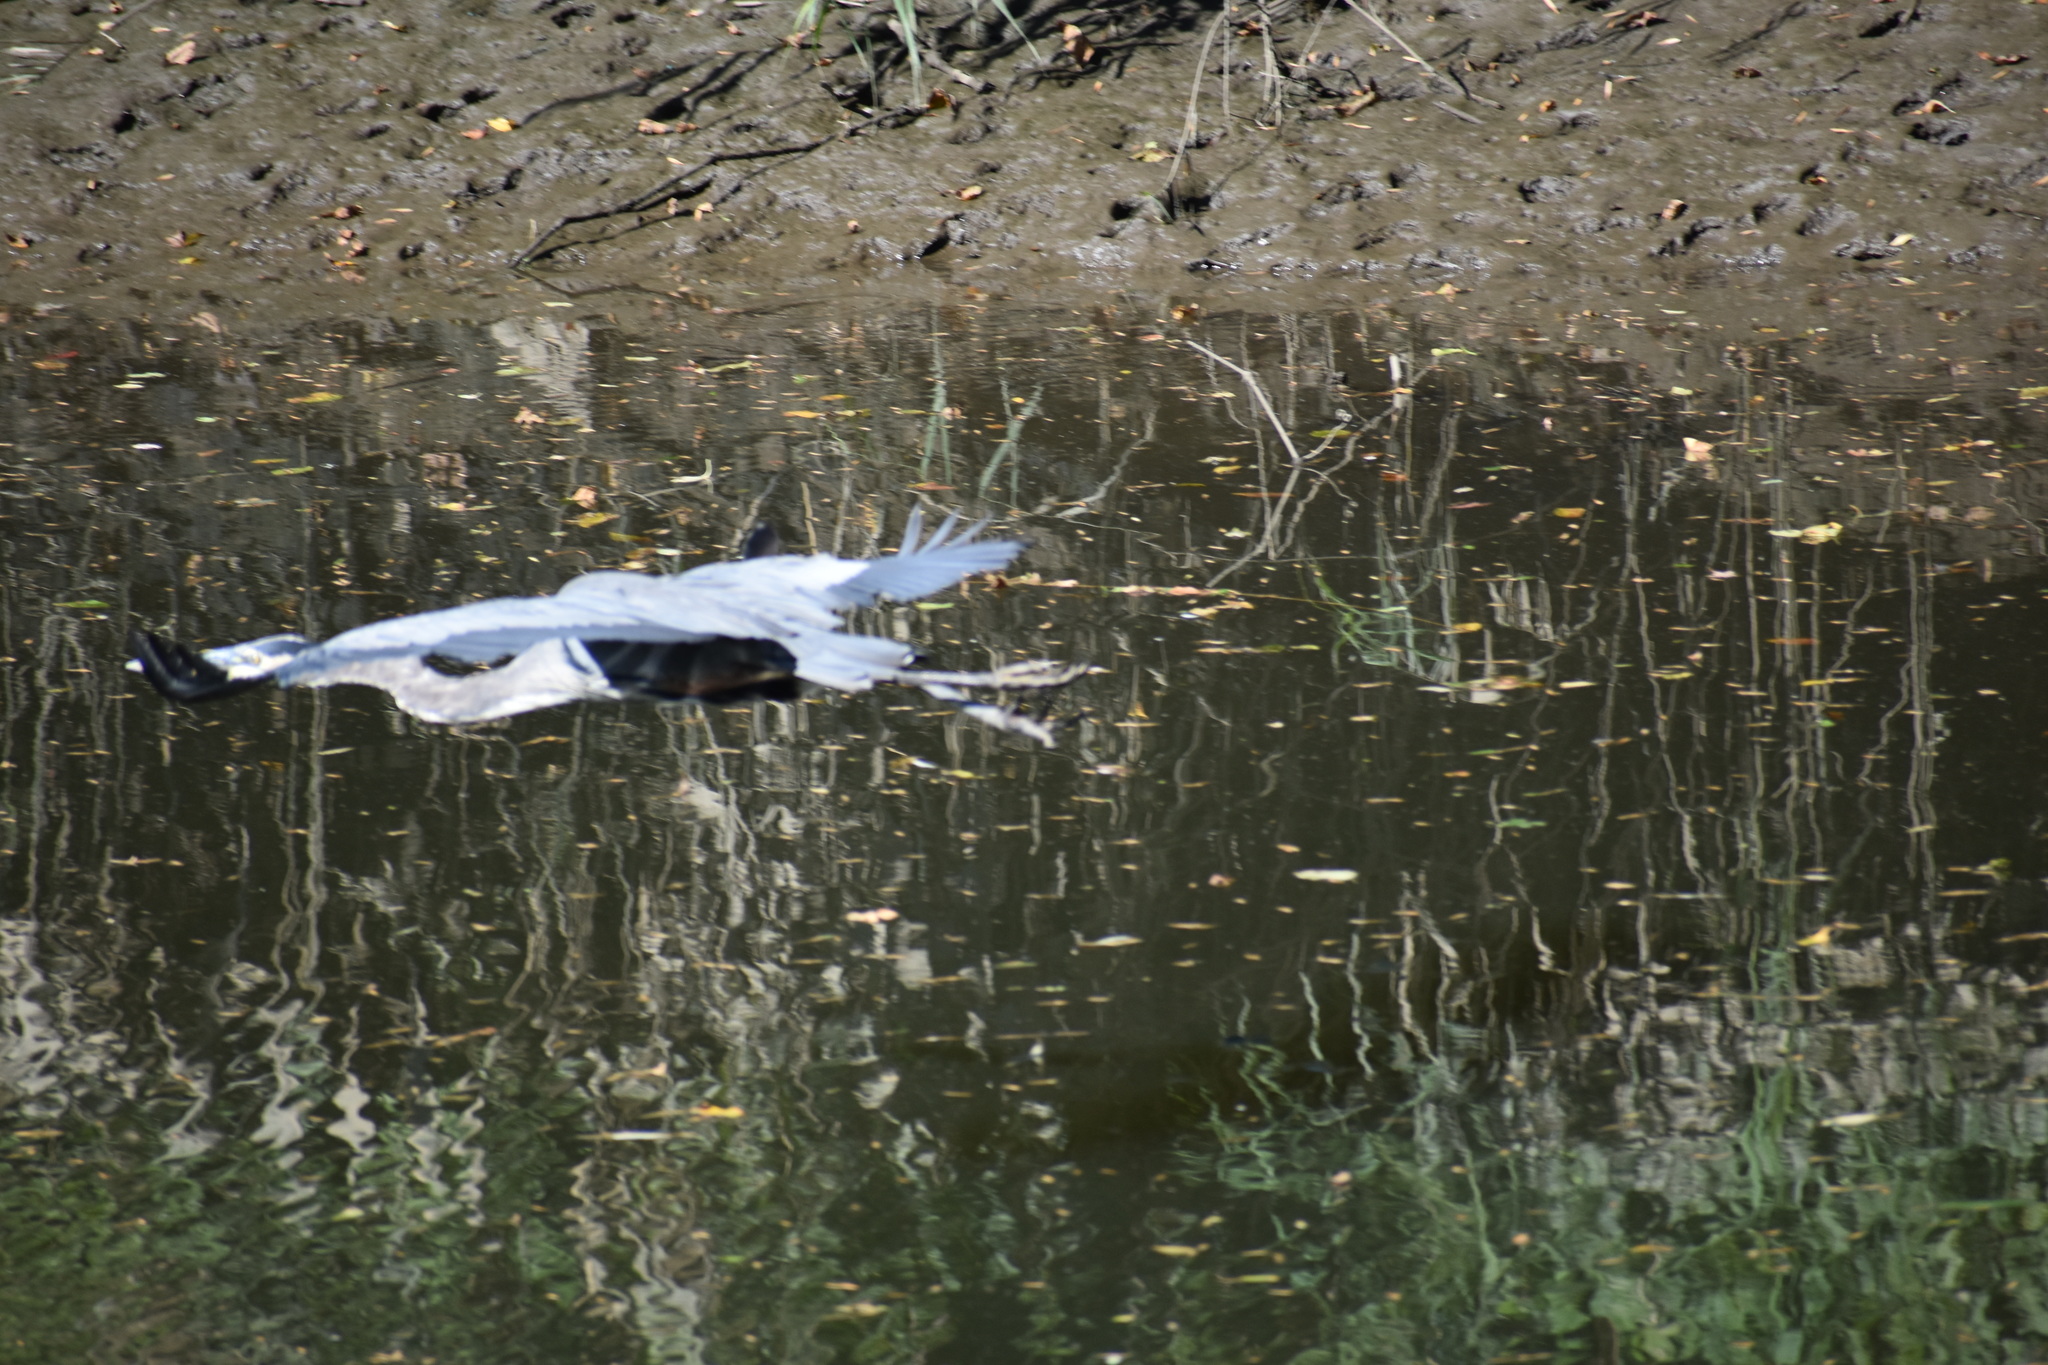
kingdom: Animalia
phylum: Chordata
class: Aves
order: Pelecaniformes
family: Ardeidae
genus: Ardea
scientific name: Ardea herodias
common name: Great blue heron
